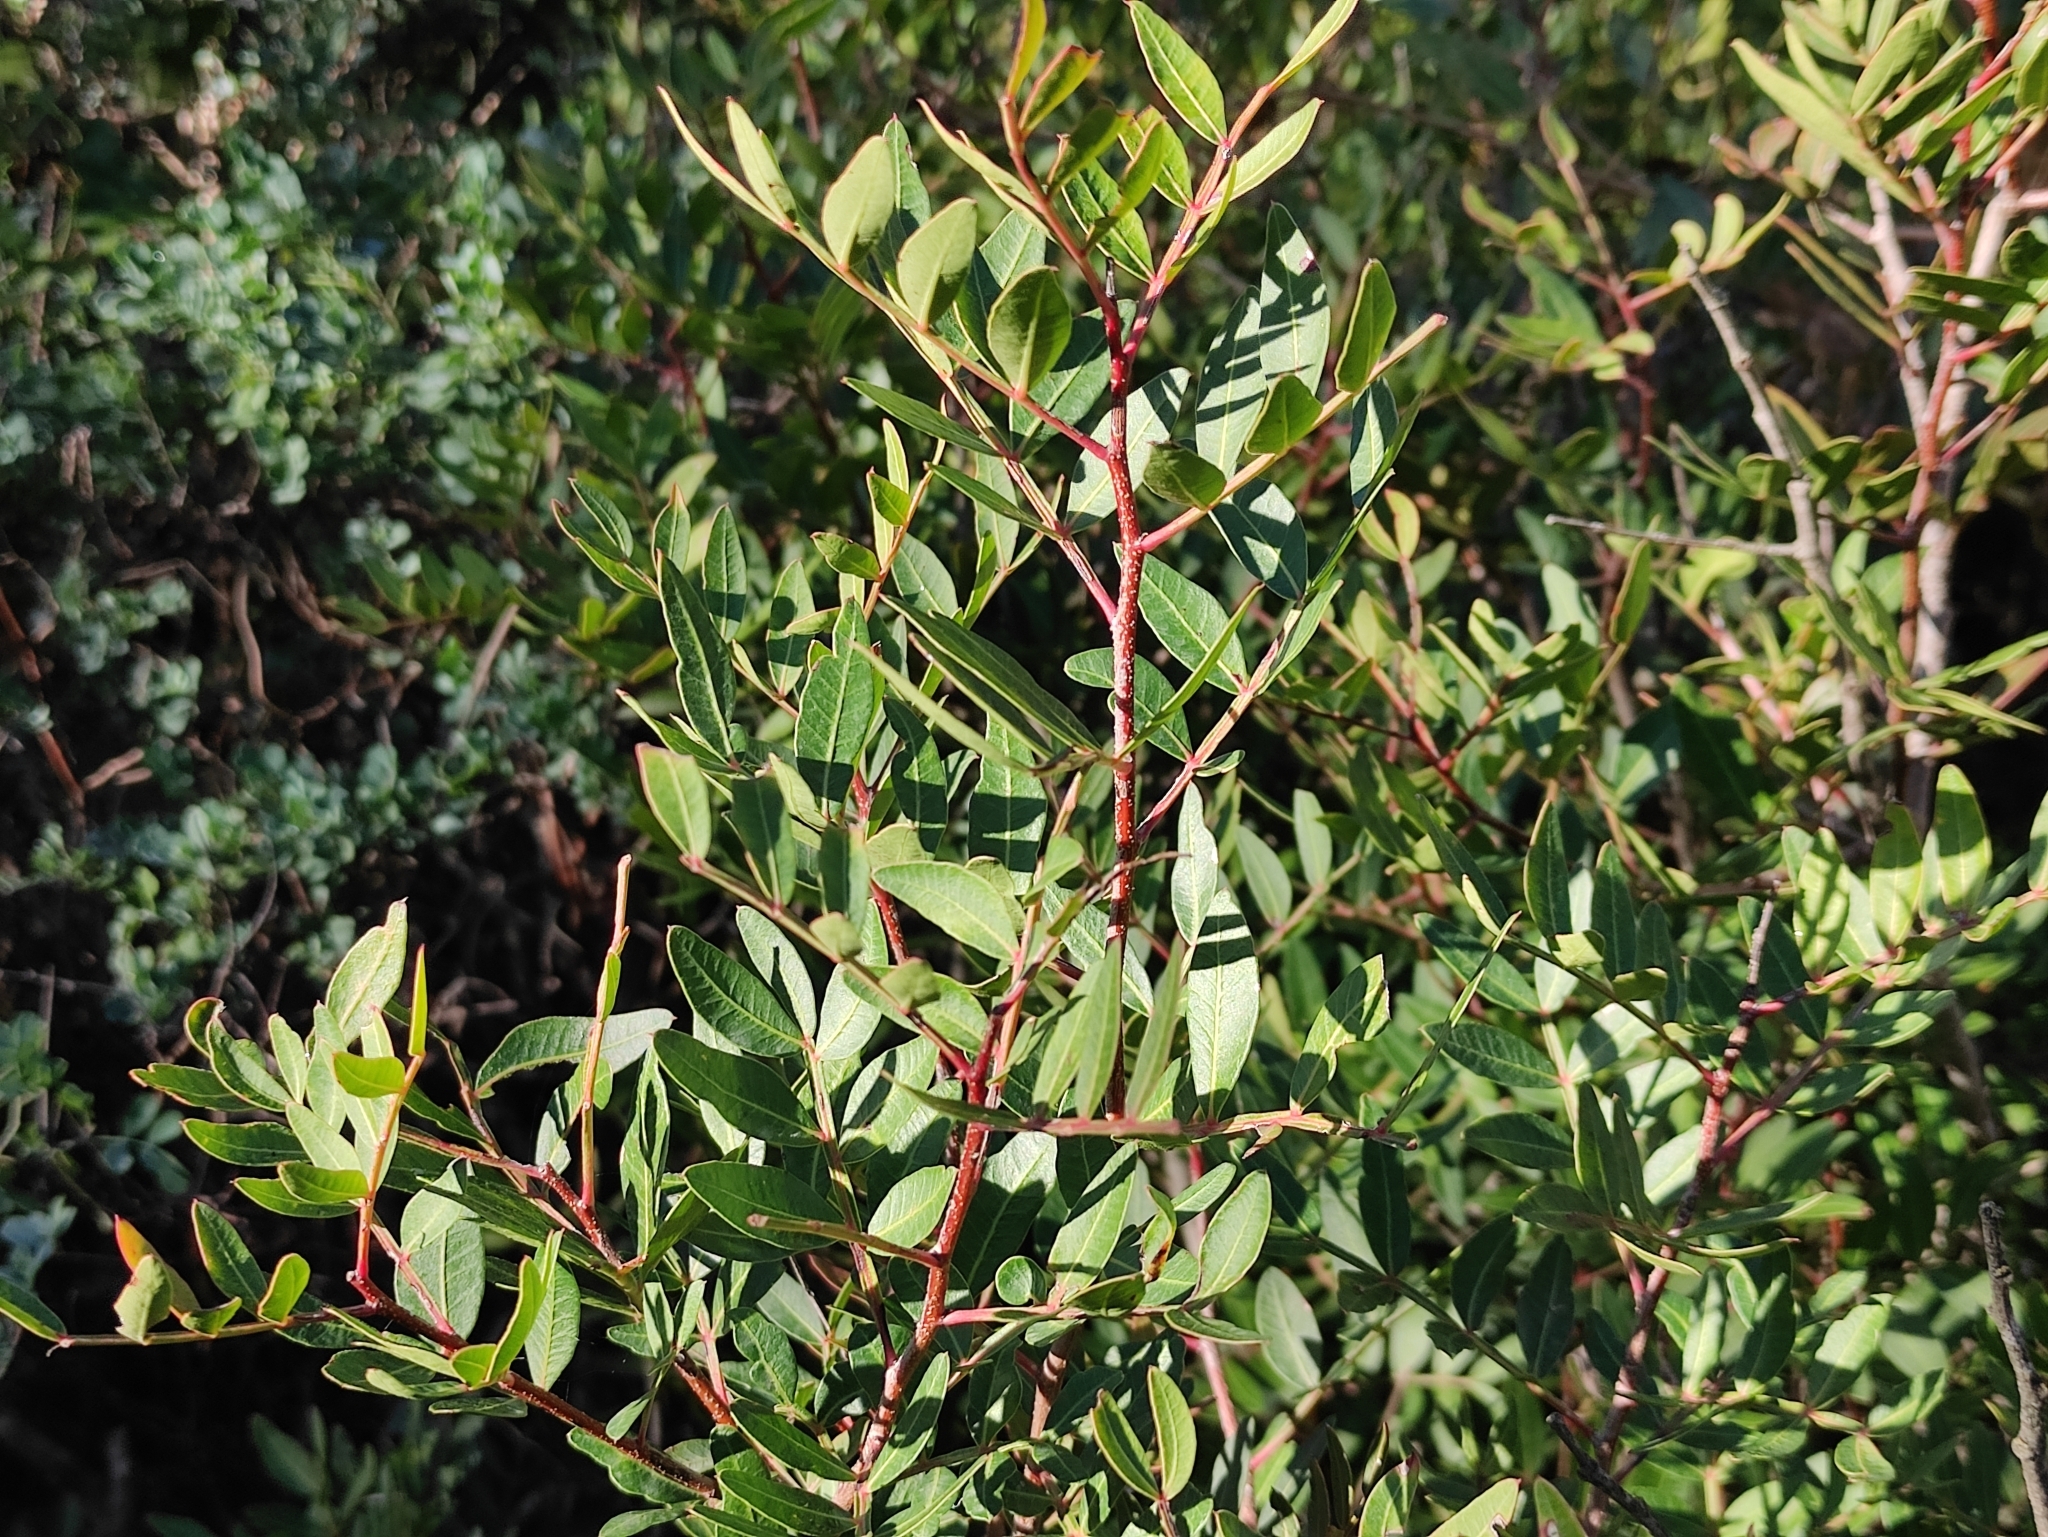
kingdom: Plantae
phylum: Tracheophyta
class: Magnoliopsida
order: Sapindales
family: Anacardiaceae
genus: Pistacia
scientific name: Pistacia lentiscus
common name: Lentisk
